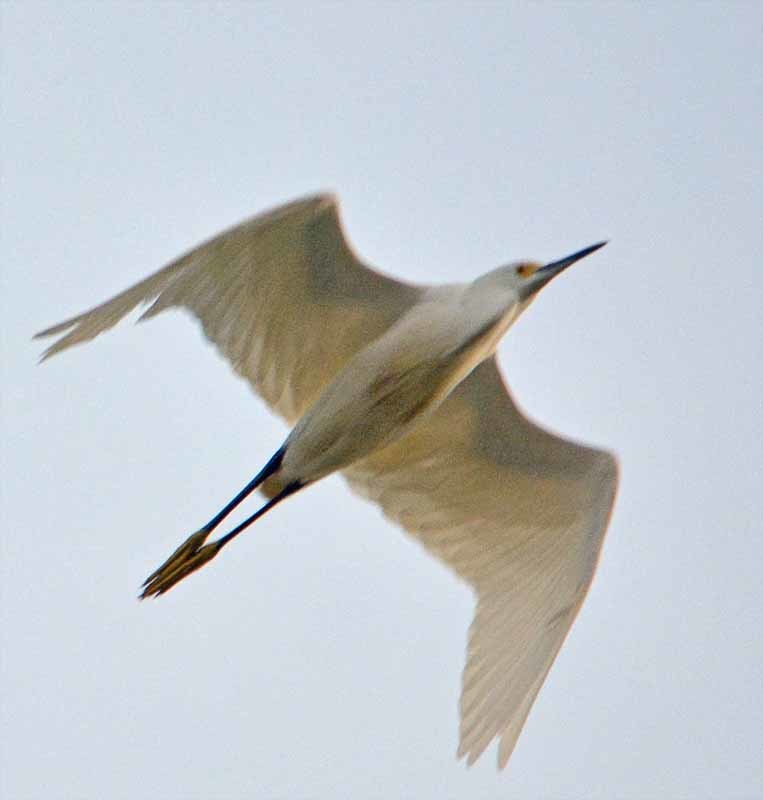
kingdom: Animalia
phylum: Chordata
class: Aves
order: Pelecaniformes
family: Ardeidae
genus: Egretta
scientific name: Egretta thula
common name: Snowy egret
